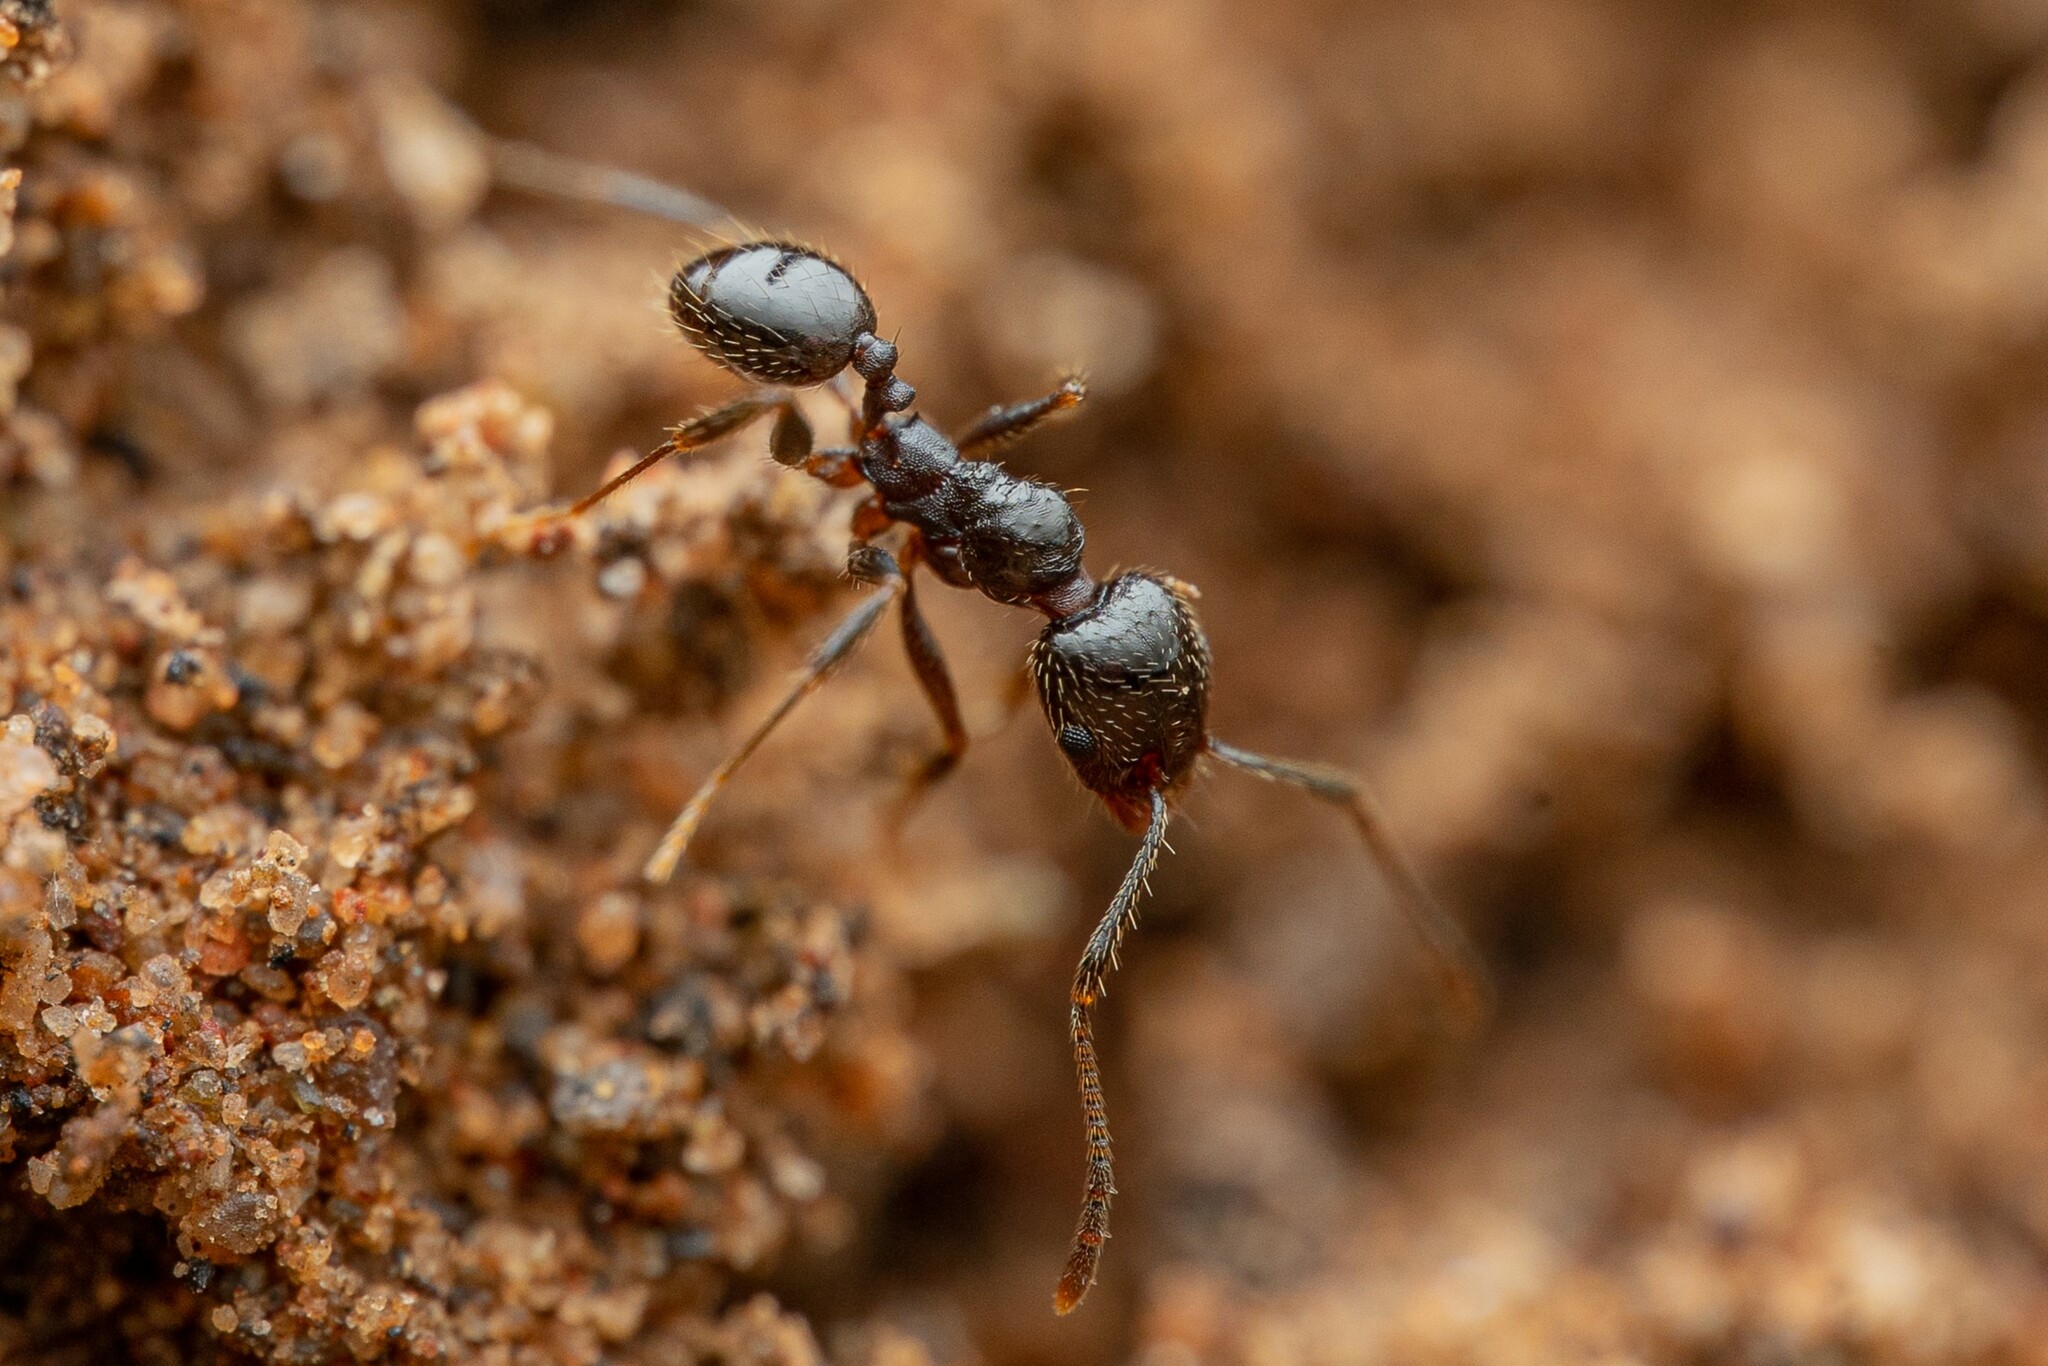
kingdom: Animalia
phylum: Arthropoda
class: Insecta
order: Hymenoptera
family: Formicidae
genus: Pheidole
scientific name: Pheidole
